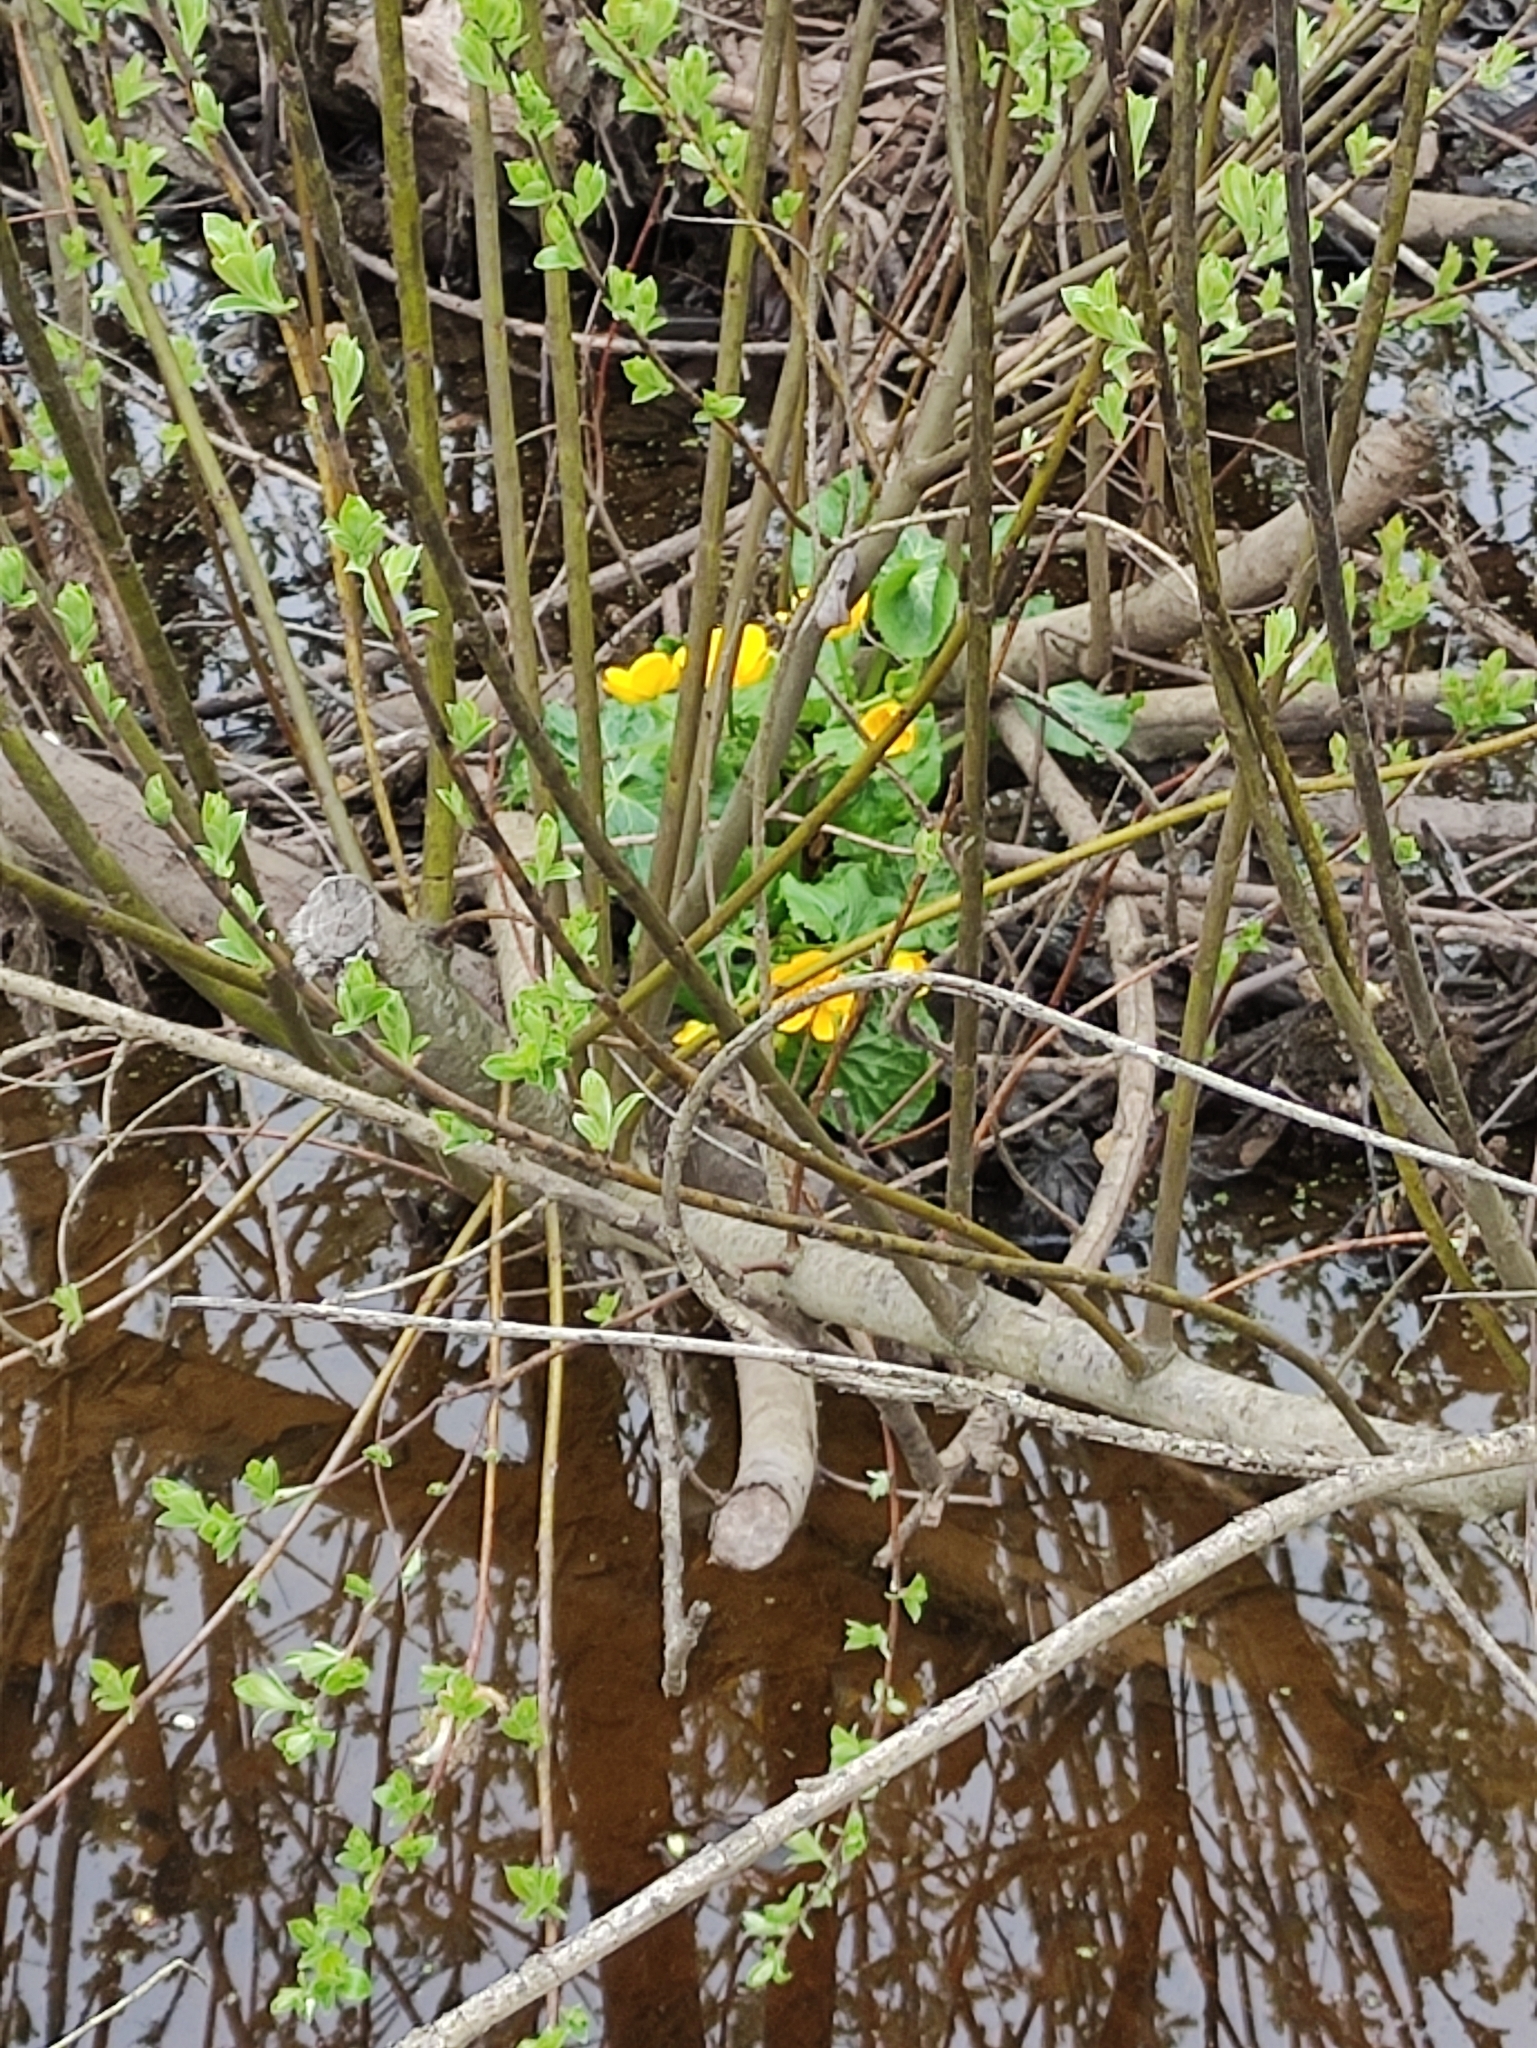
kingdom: Plantae
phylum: Tracheophyta
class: Magnoliopsida
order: Ranunculales
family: Ranunculaceae
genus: Caltha
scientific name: Caltha palustris
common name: Marsh marigold
